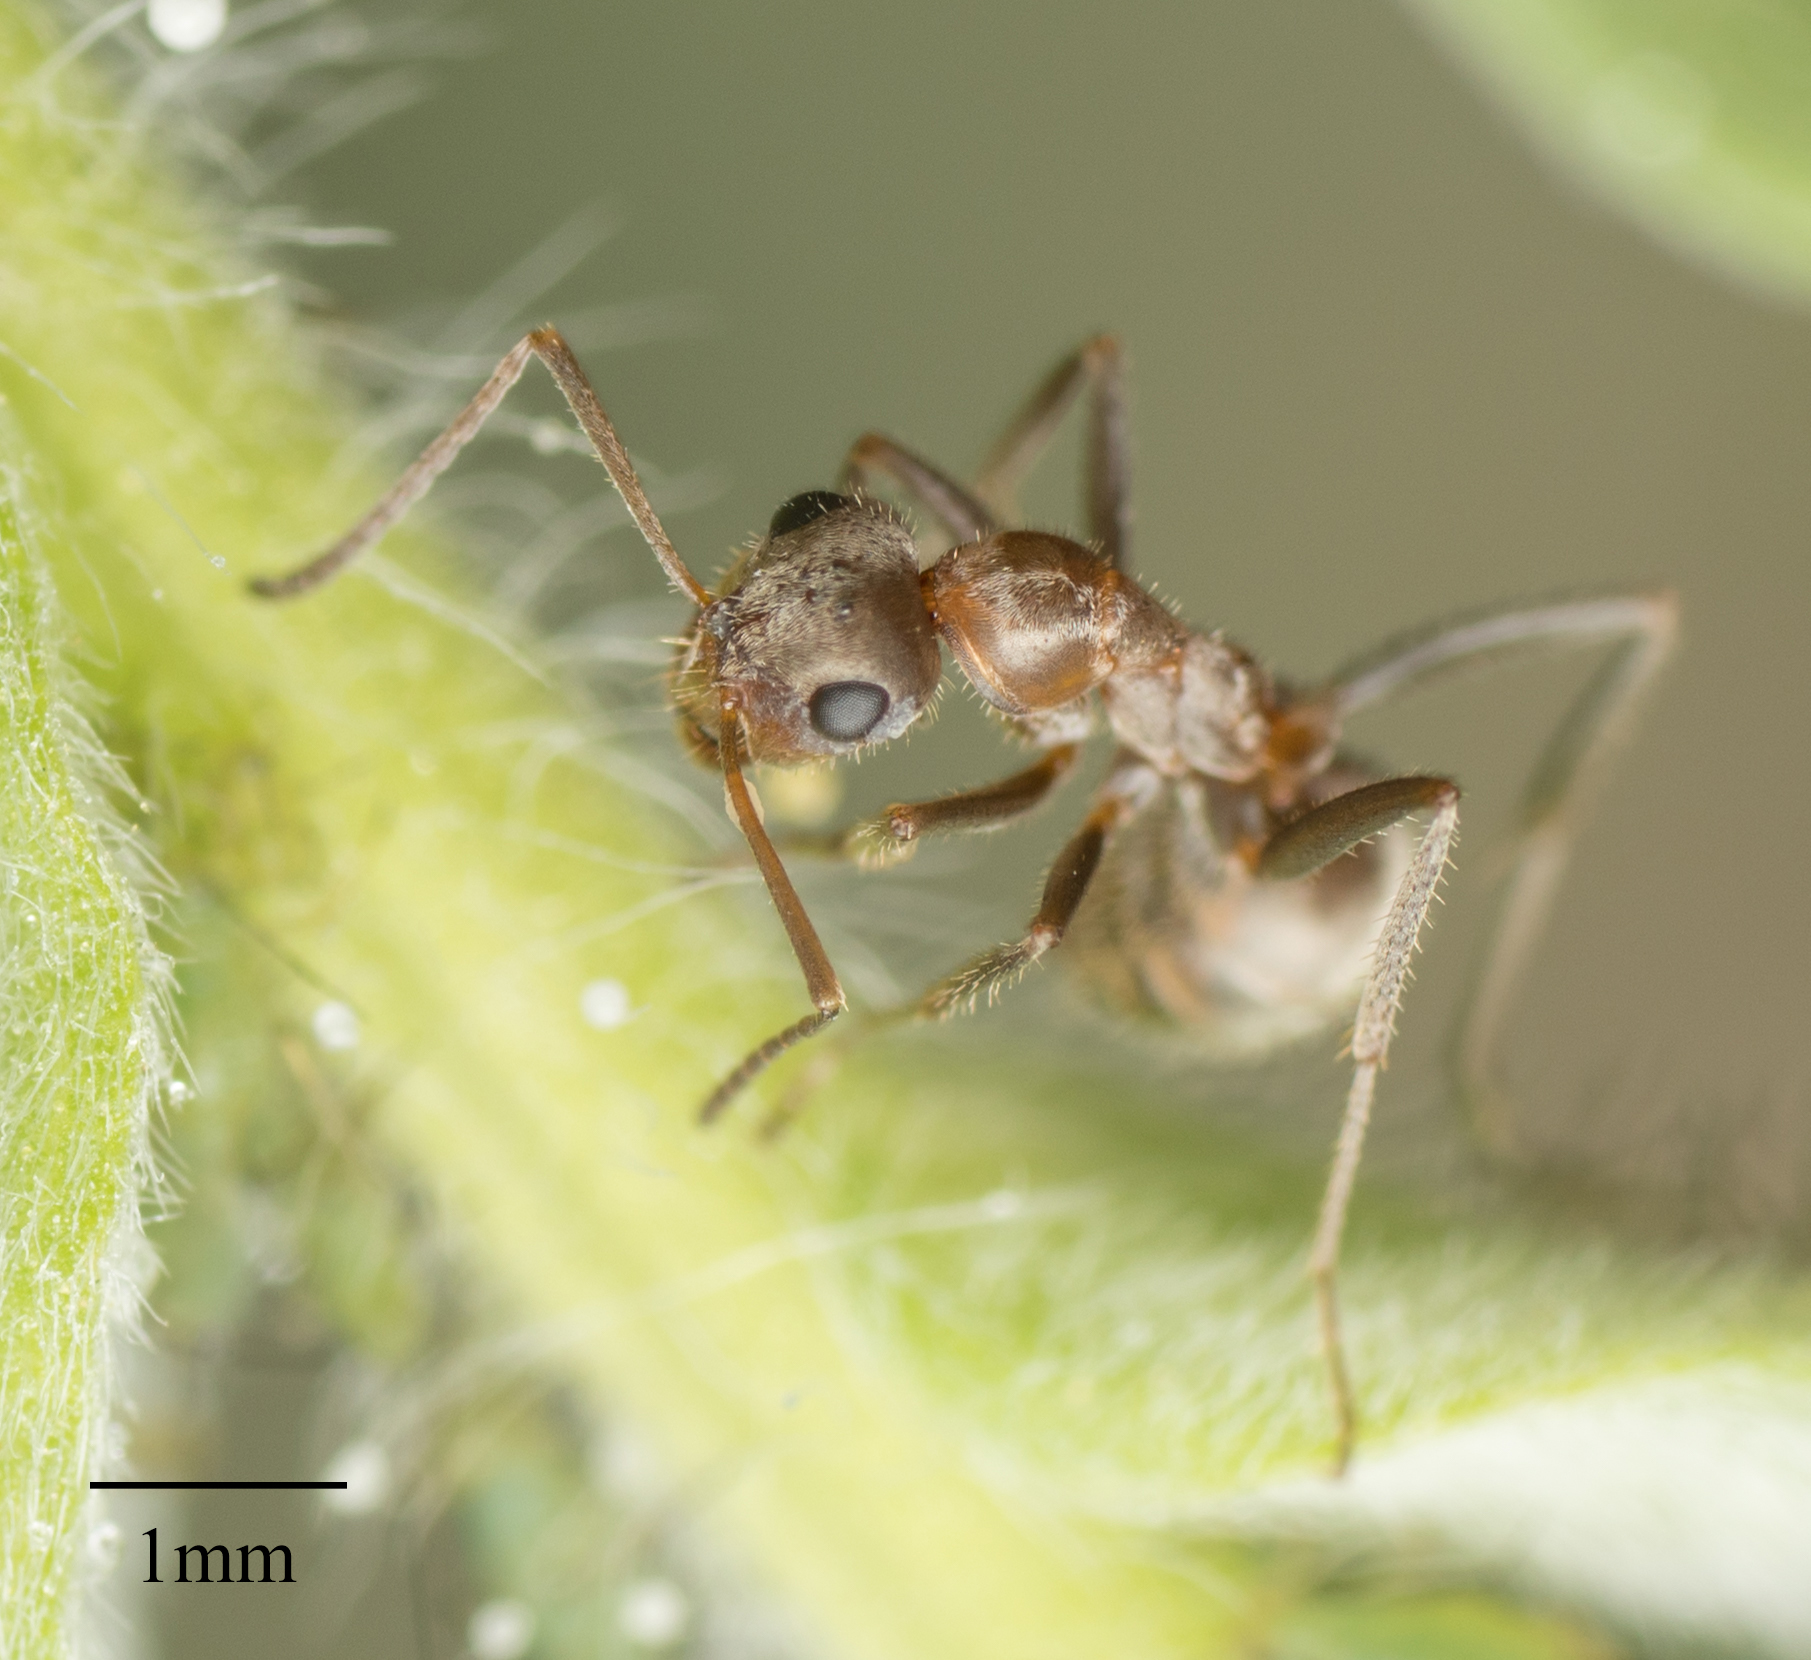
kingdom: Animalia
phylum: Arthropoda
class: Insecta
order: Hymenoptera
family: Formicidae
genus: Formica
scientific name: Formica francoeuri
